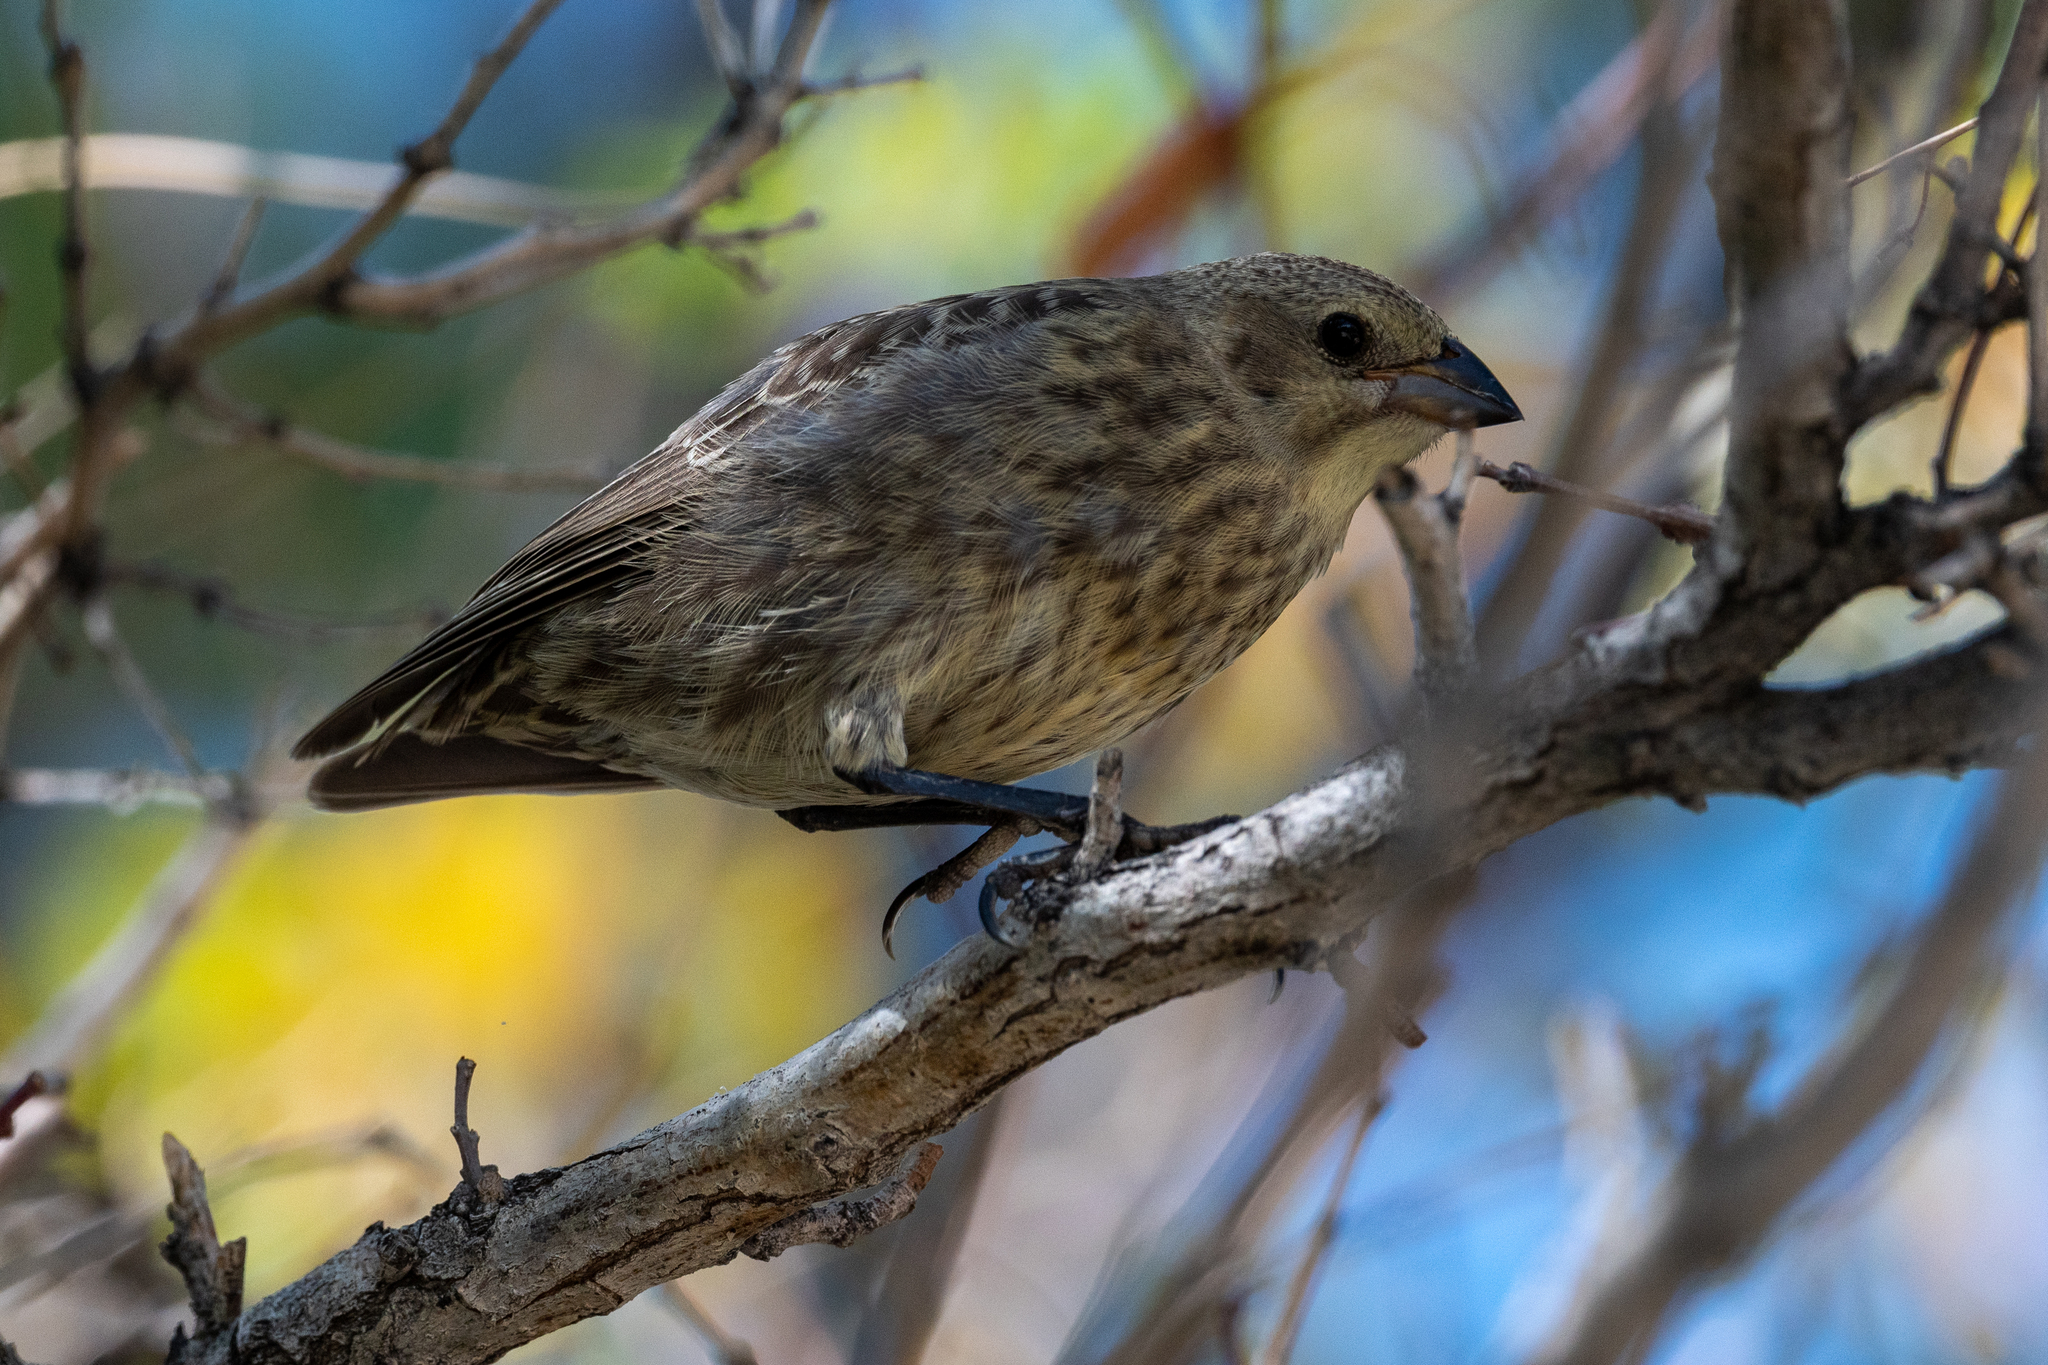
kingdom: Animalia
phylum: Chordata
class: Aves
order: Passeriformes
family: Icteridae
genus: Molothrus
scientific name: Molothrus ater
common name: Brown-headed cowbird
